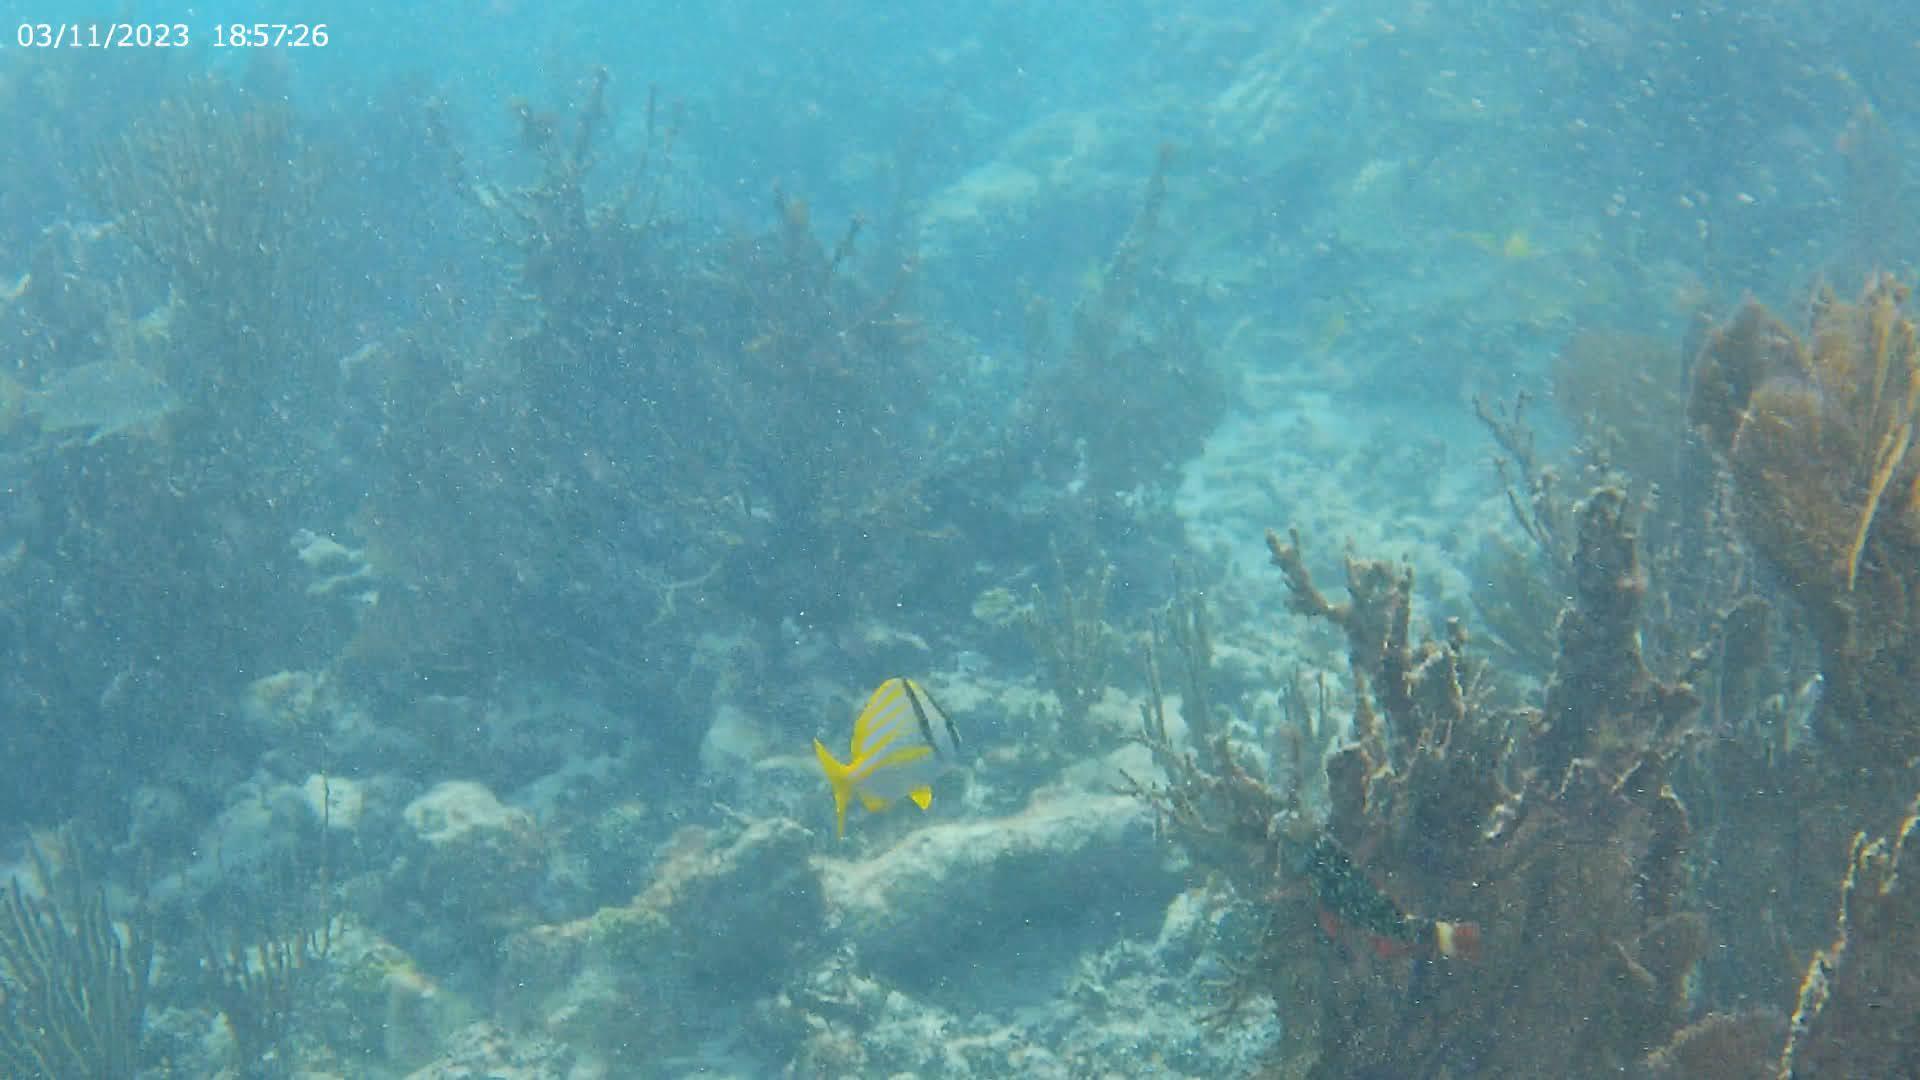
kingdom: Animalia
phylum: Chordata
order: Perciformes
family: Haemulidae
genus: Anisotremus
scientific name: Anisotremus virginicus
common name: Porkfish
